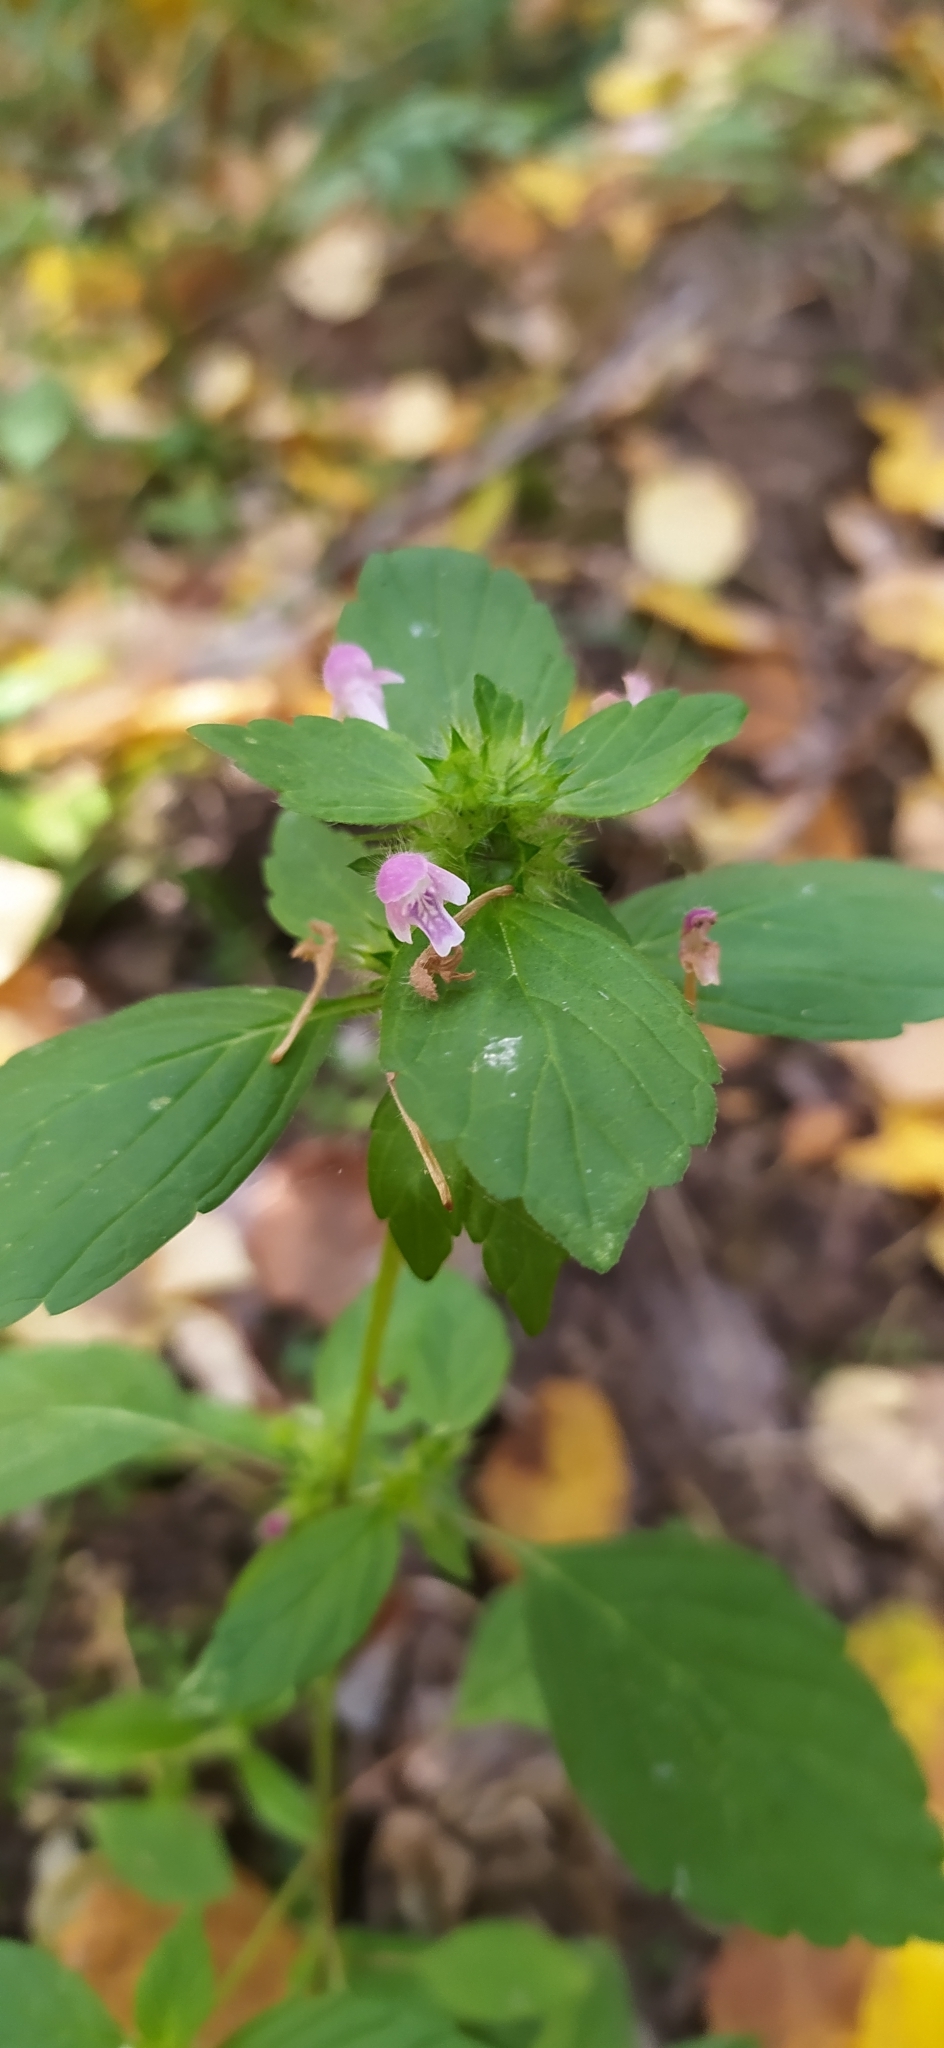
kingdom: Plantae
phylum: Tracheophyta
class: Magnoliopsida
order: Lamiales
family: Lamiaceae
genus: Galeopsis
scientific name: Galeopsis bifida
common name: Bifid hemp-nettle
